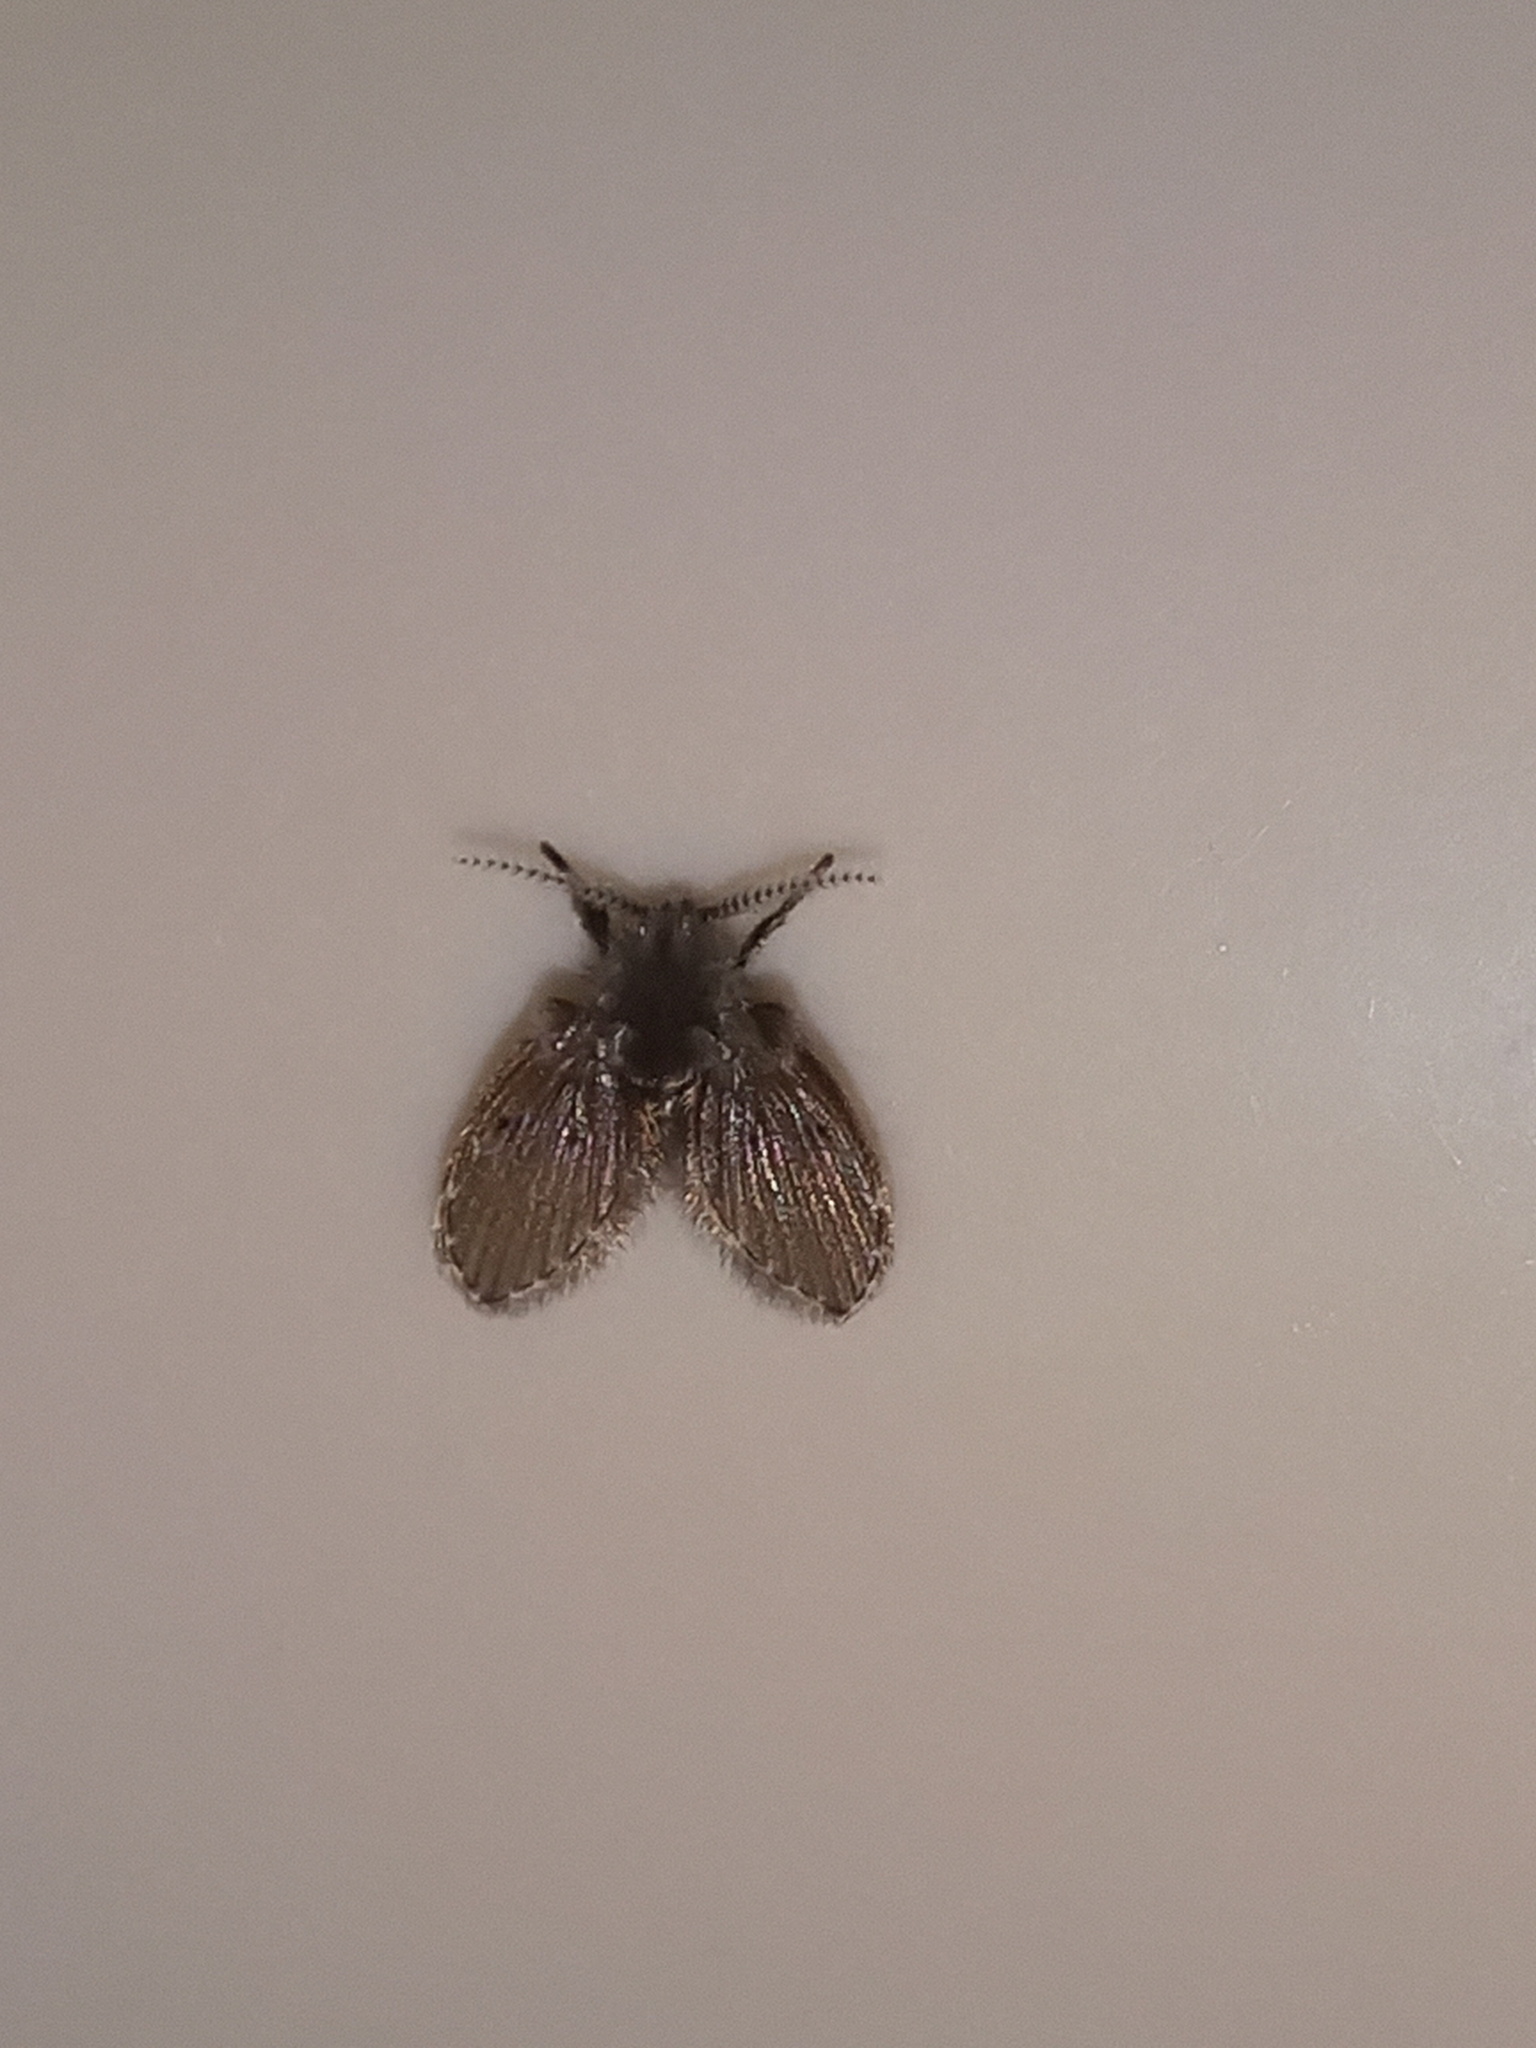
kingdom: Animalia
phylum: Arthropoda
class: Insecta
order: Diptera
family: Psychodidae
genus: Clogmia
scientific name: Clogmia albipunctatus
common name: White-spotted moth fly
